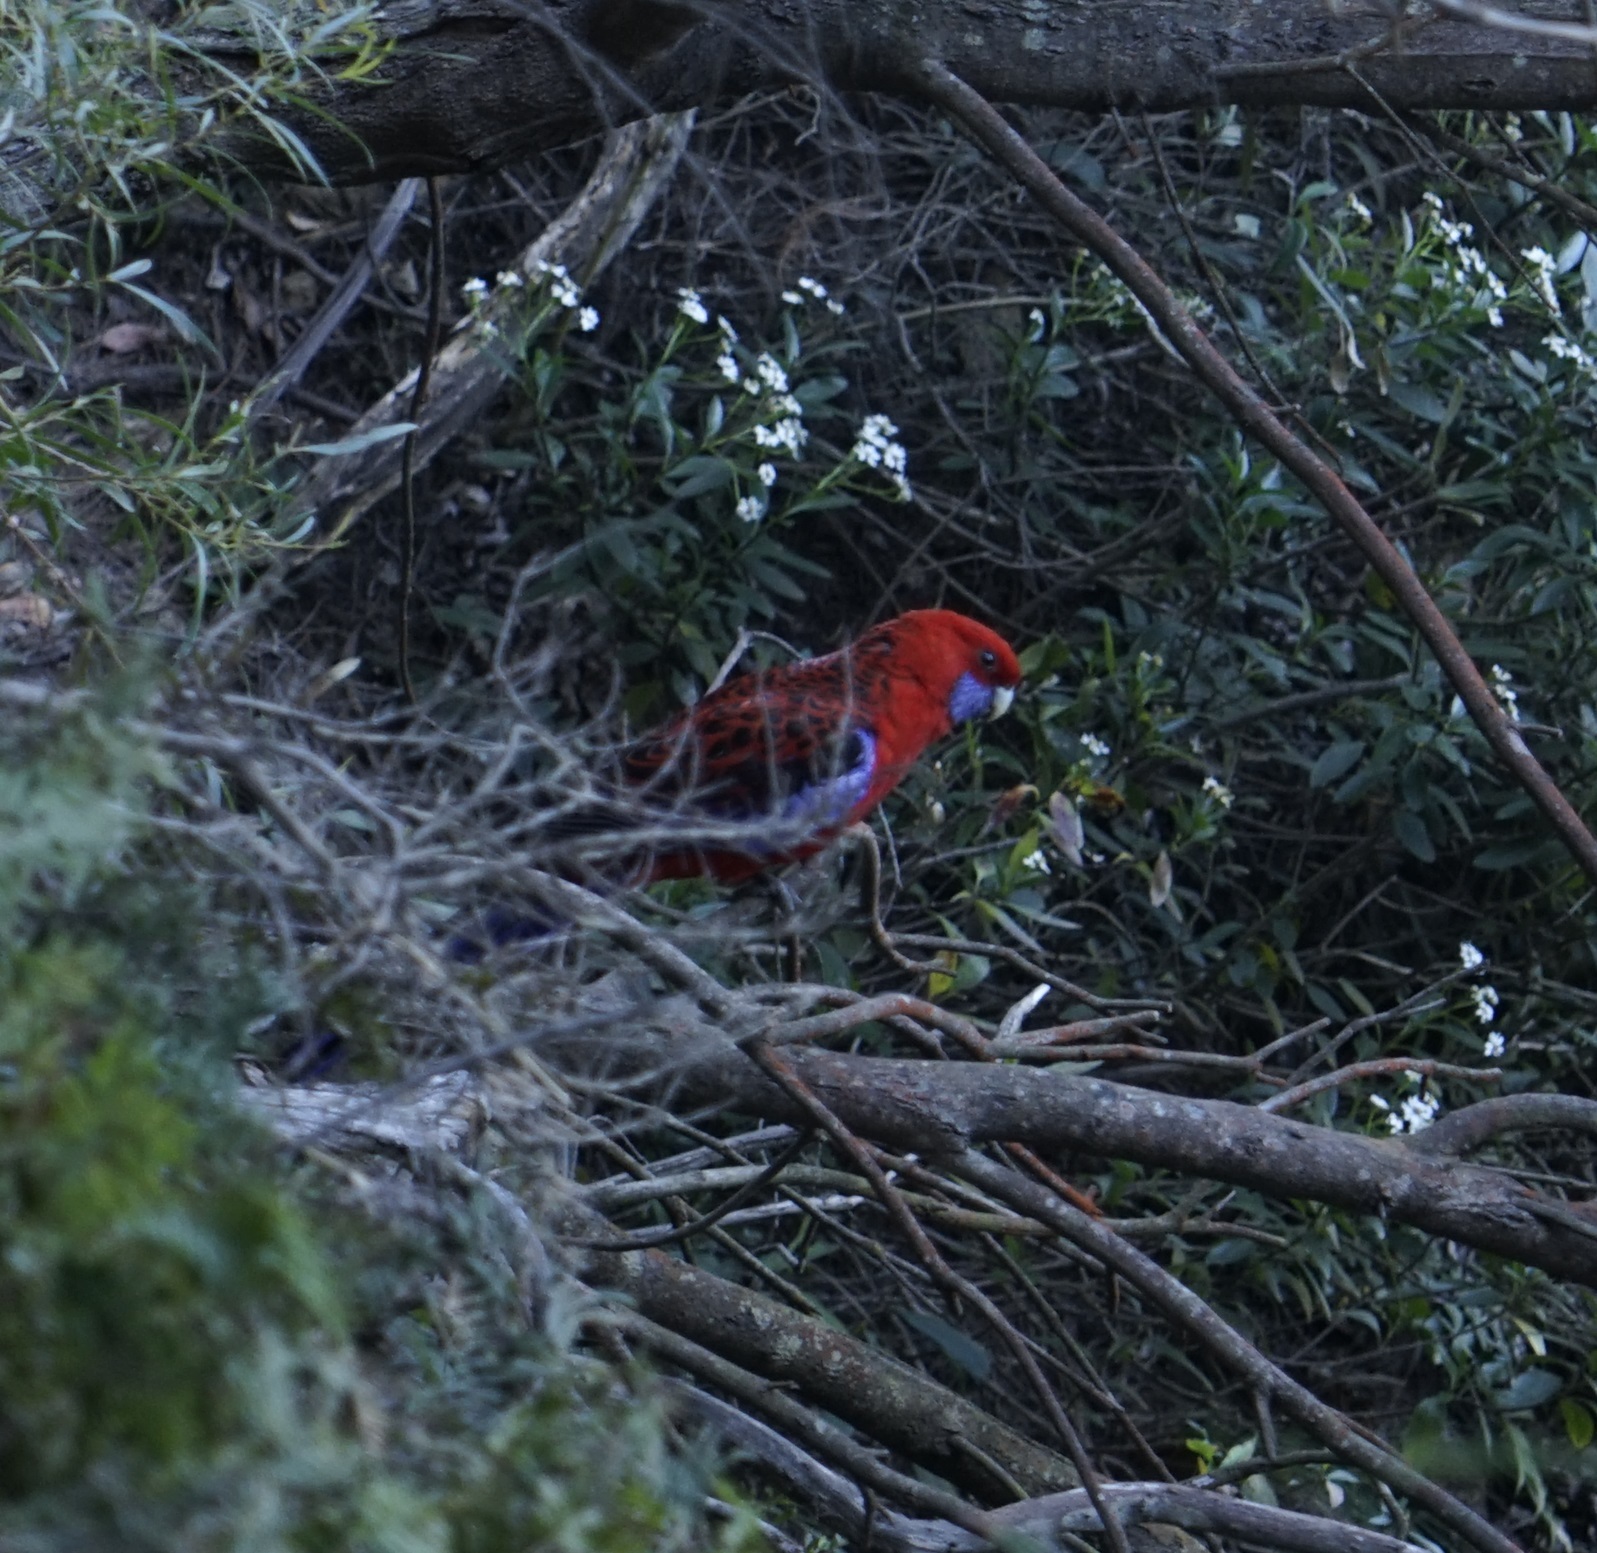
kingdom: Animalia
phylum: Chordata
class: Aves
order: Psittaciformes
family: Psittacidae
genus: Platycercus
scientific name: Platycercus elegans
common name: Crimson rosella
